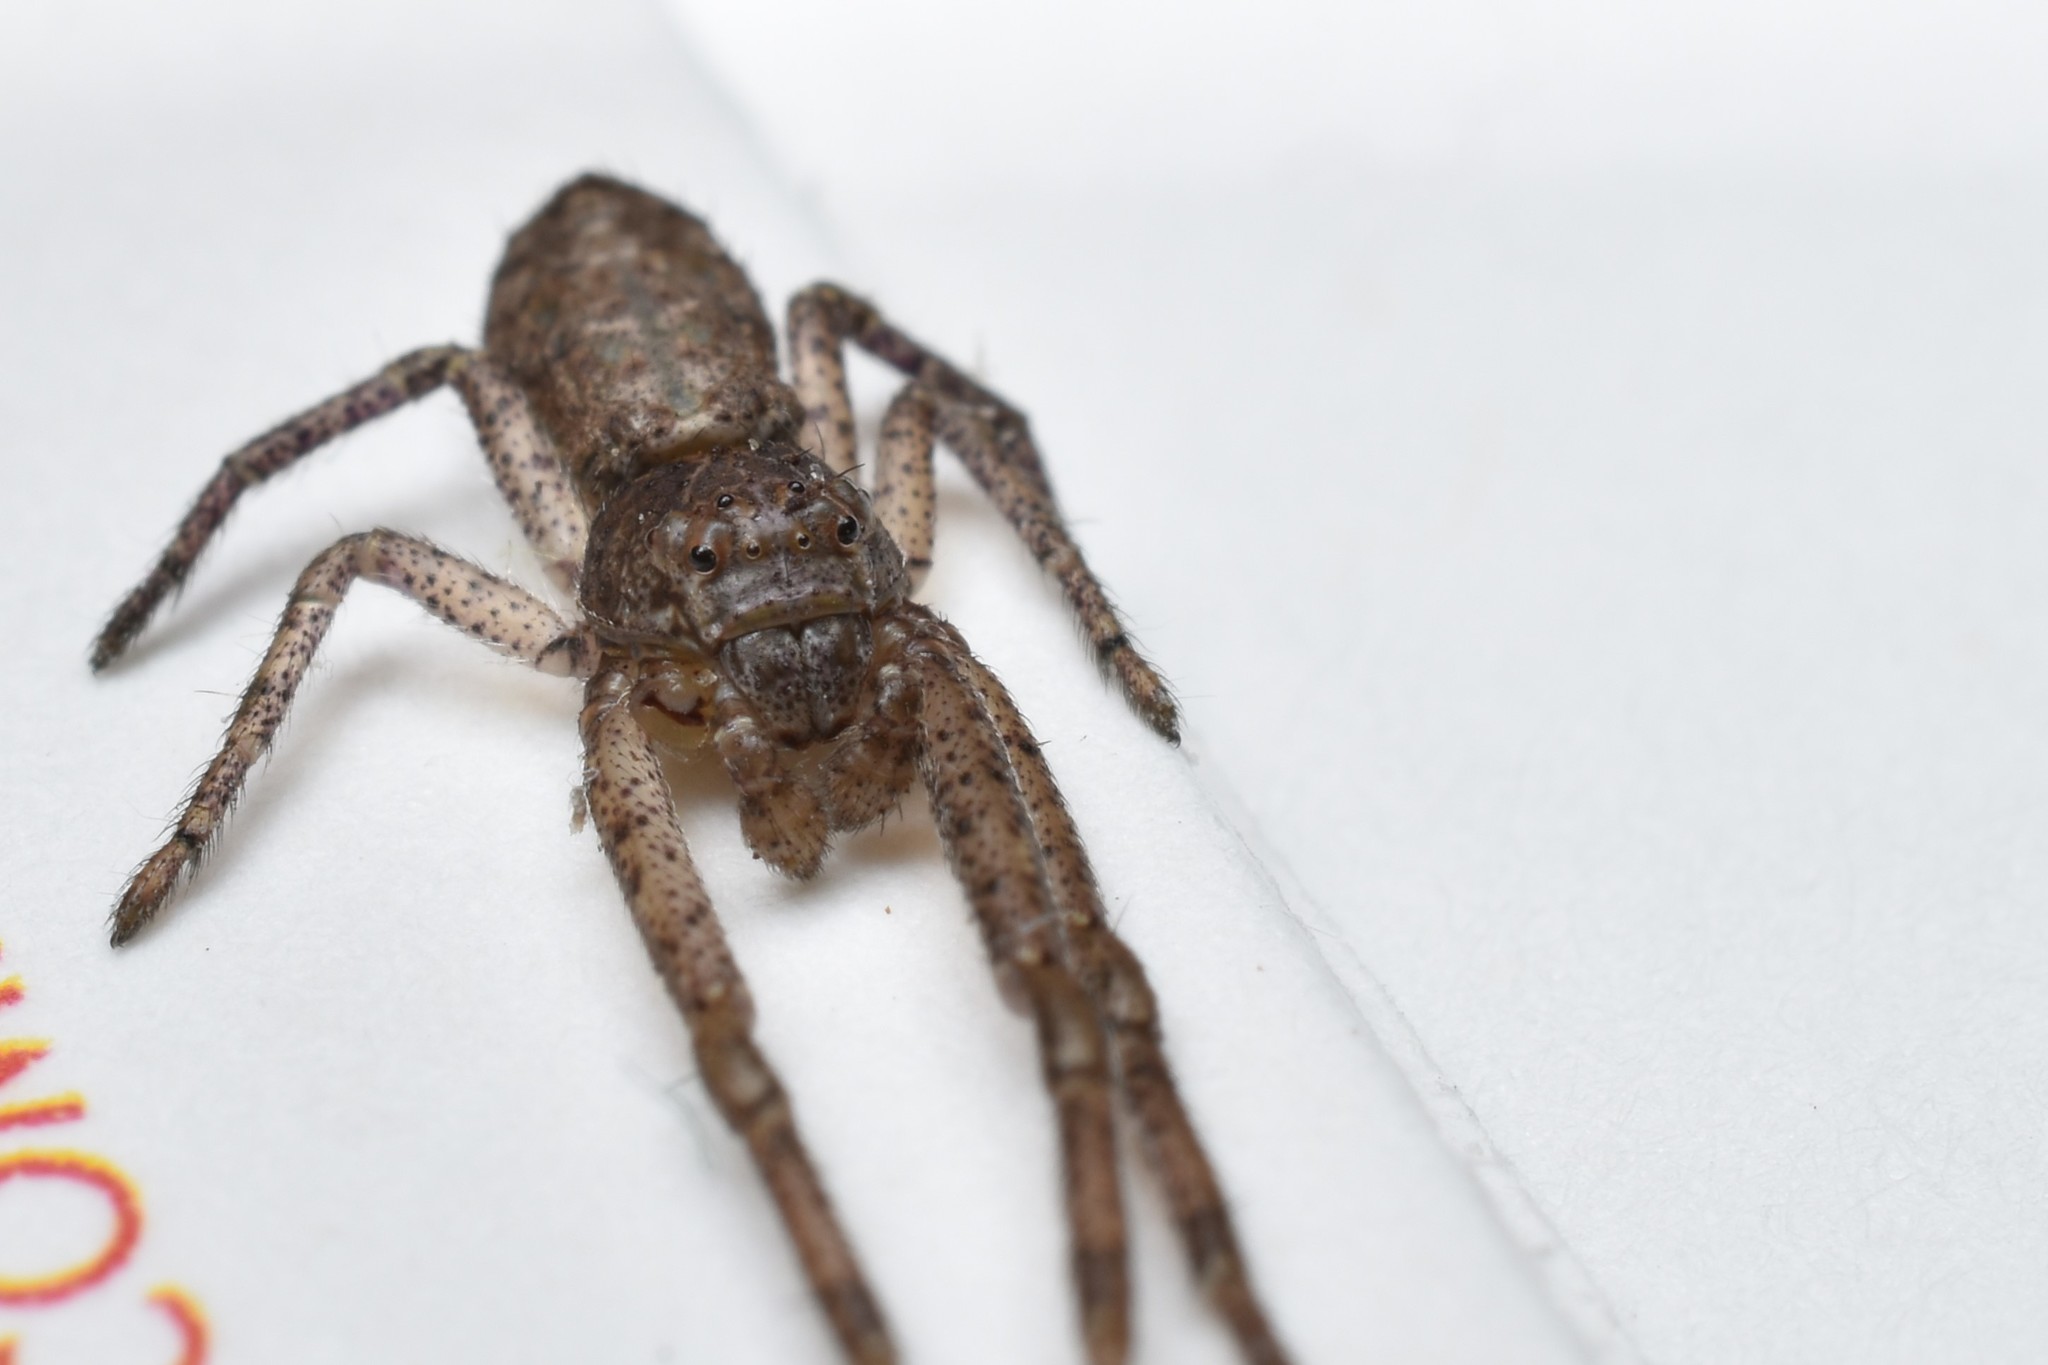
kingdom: Animalia
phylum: Arthropoda
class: Arachnida
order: Araneae
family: Thomisidae
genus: Tmarus
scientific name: Tmarus angulatus
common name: Tuberculated crab spider
